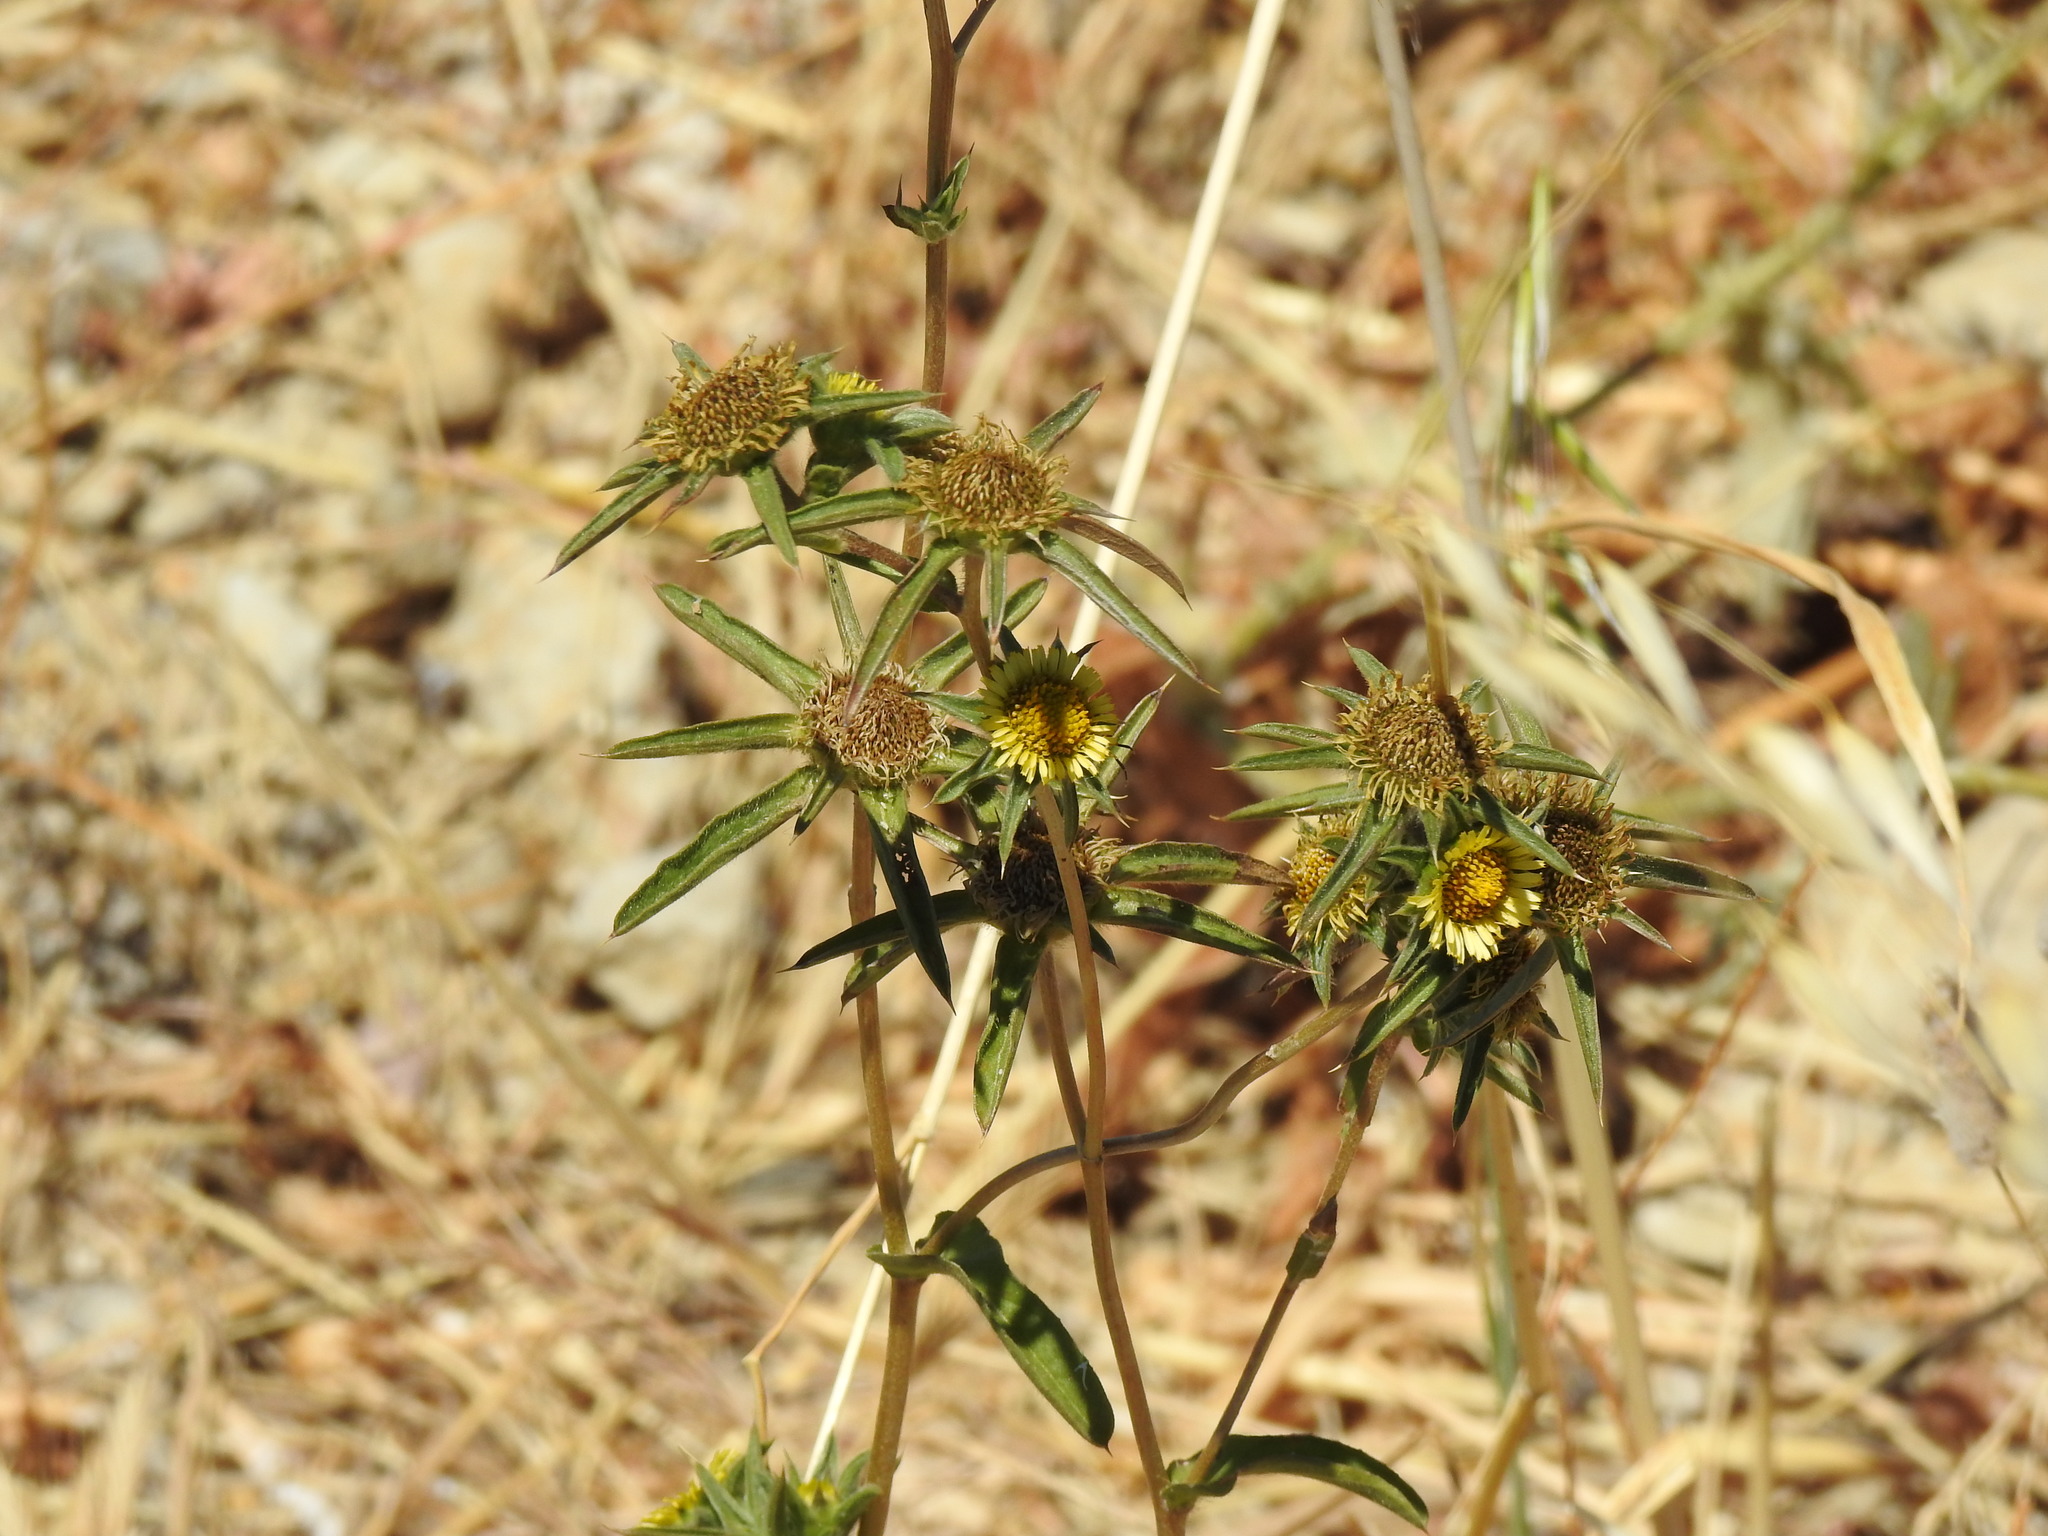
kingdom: Plantae
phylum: Tracheophyta
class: Magnoliopsida
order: Asterales
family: Asteraceae
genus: Pallenis
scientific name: Pallenis spinosa
